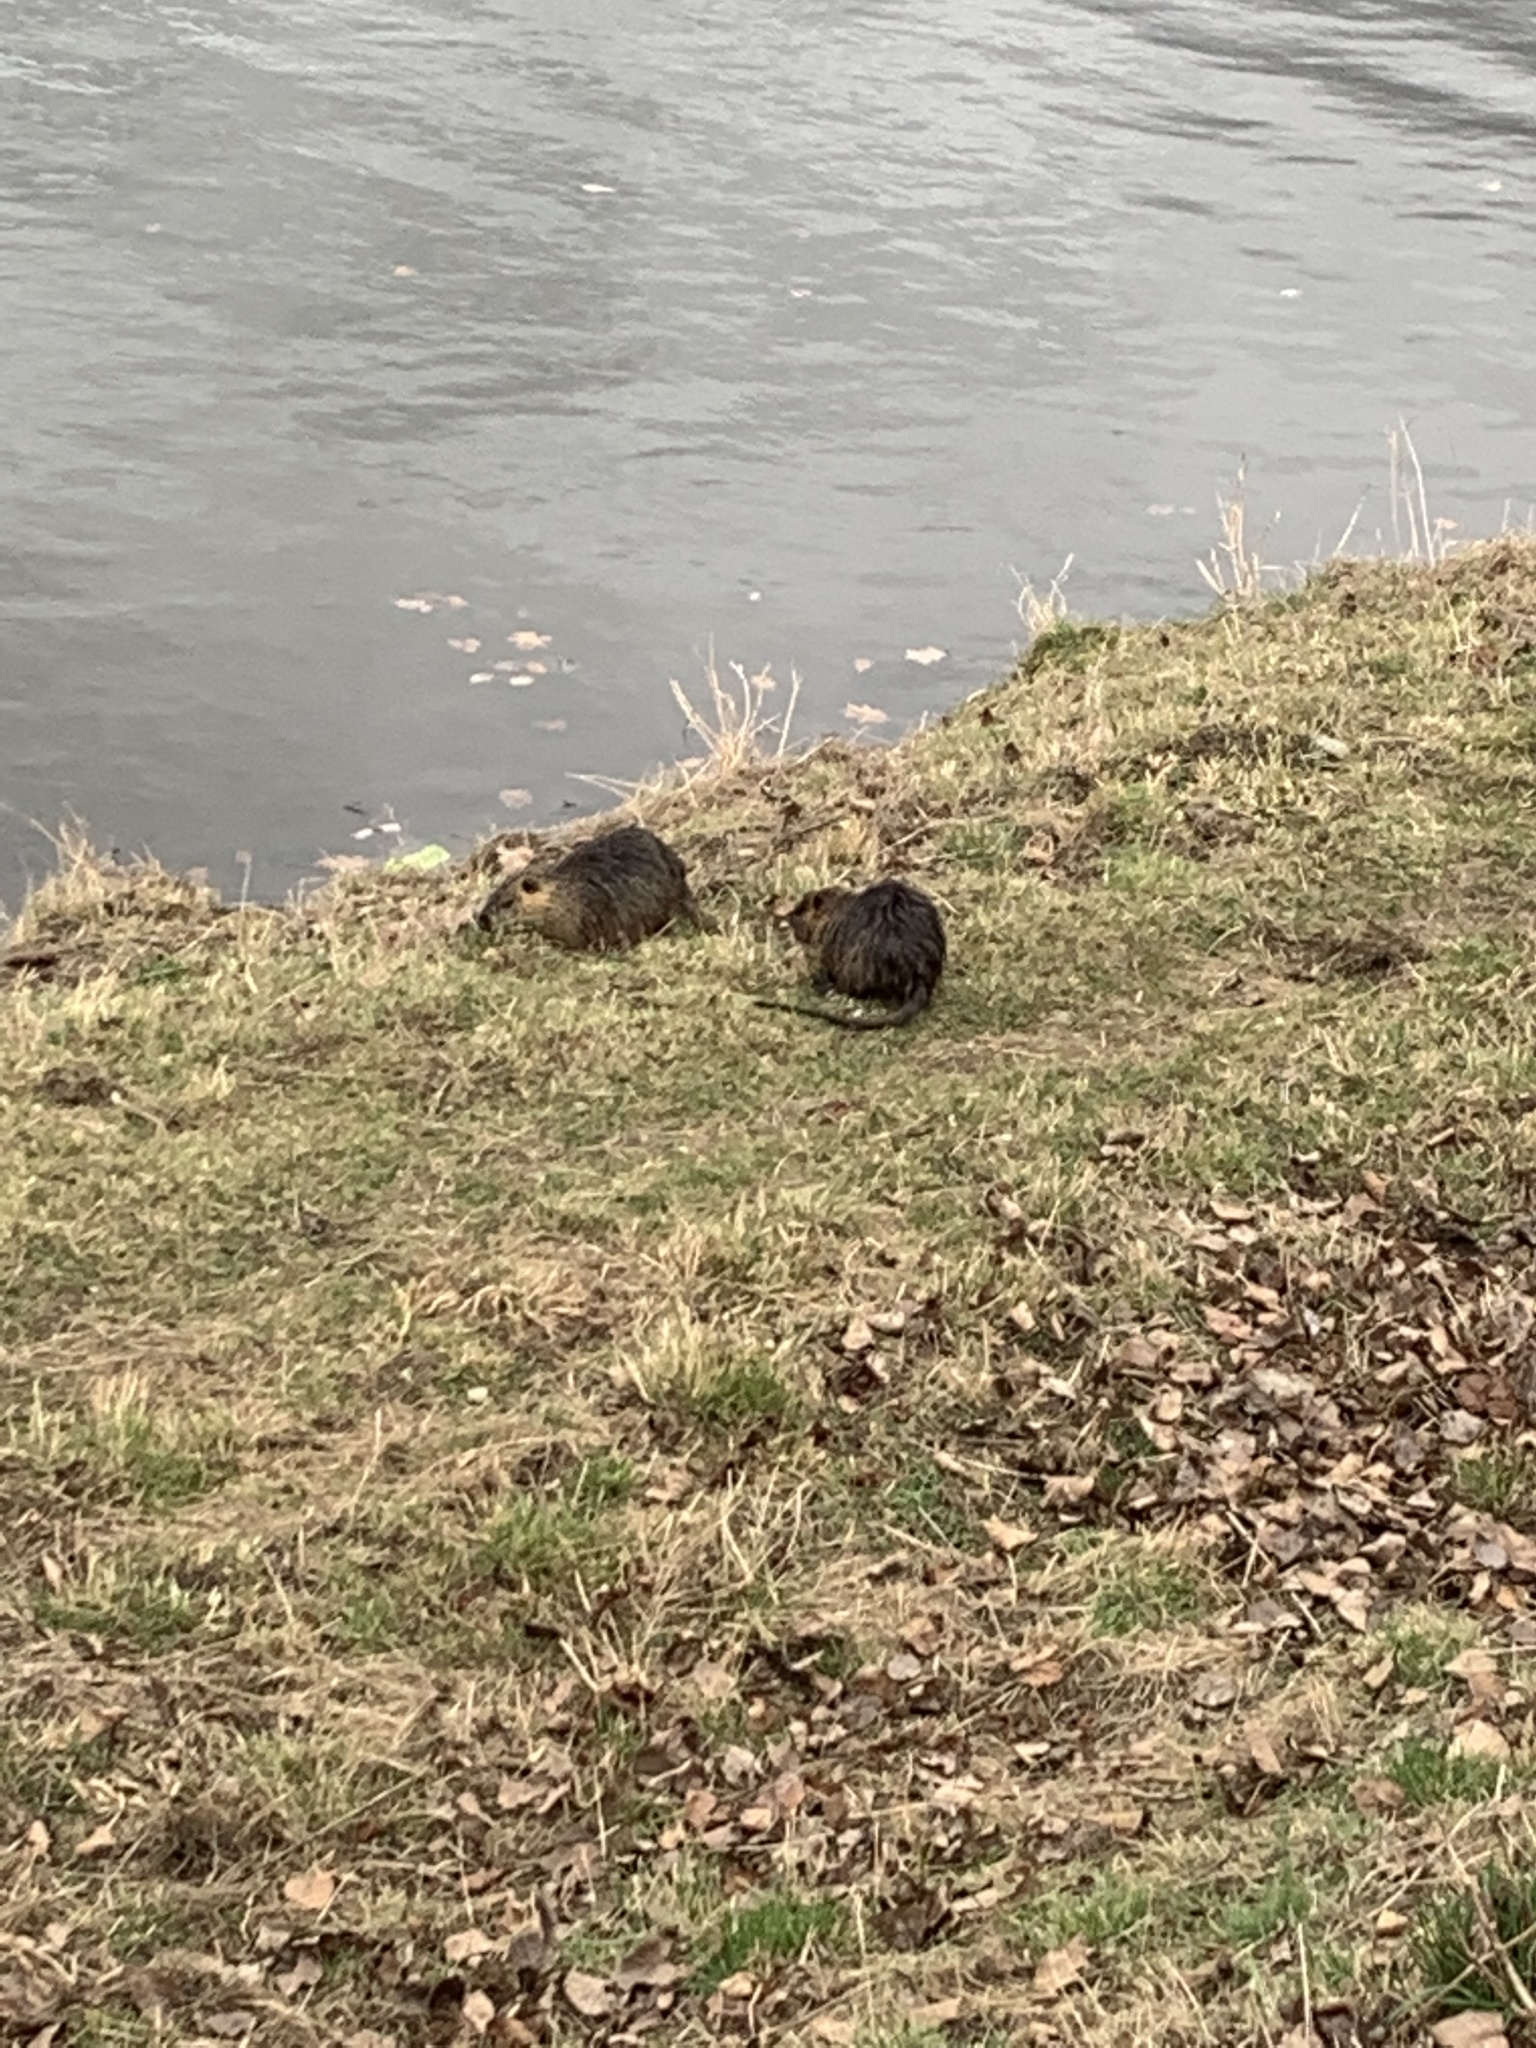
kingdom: Animalia
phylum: Chordata
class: Mammalia
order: Rodentia
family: Myocastoridae
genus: Myocastor
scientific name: Myocastor coypus
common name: Coypu
